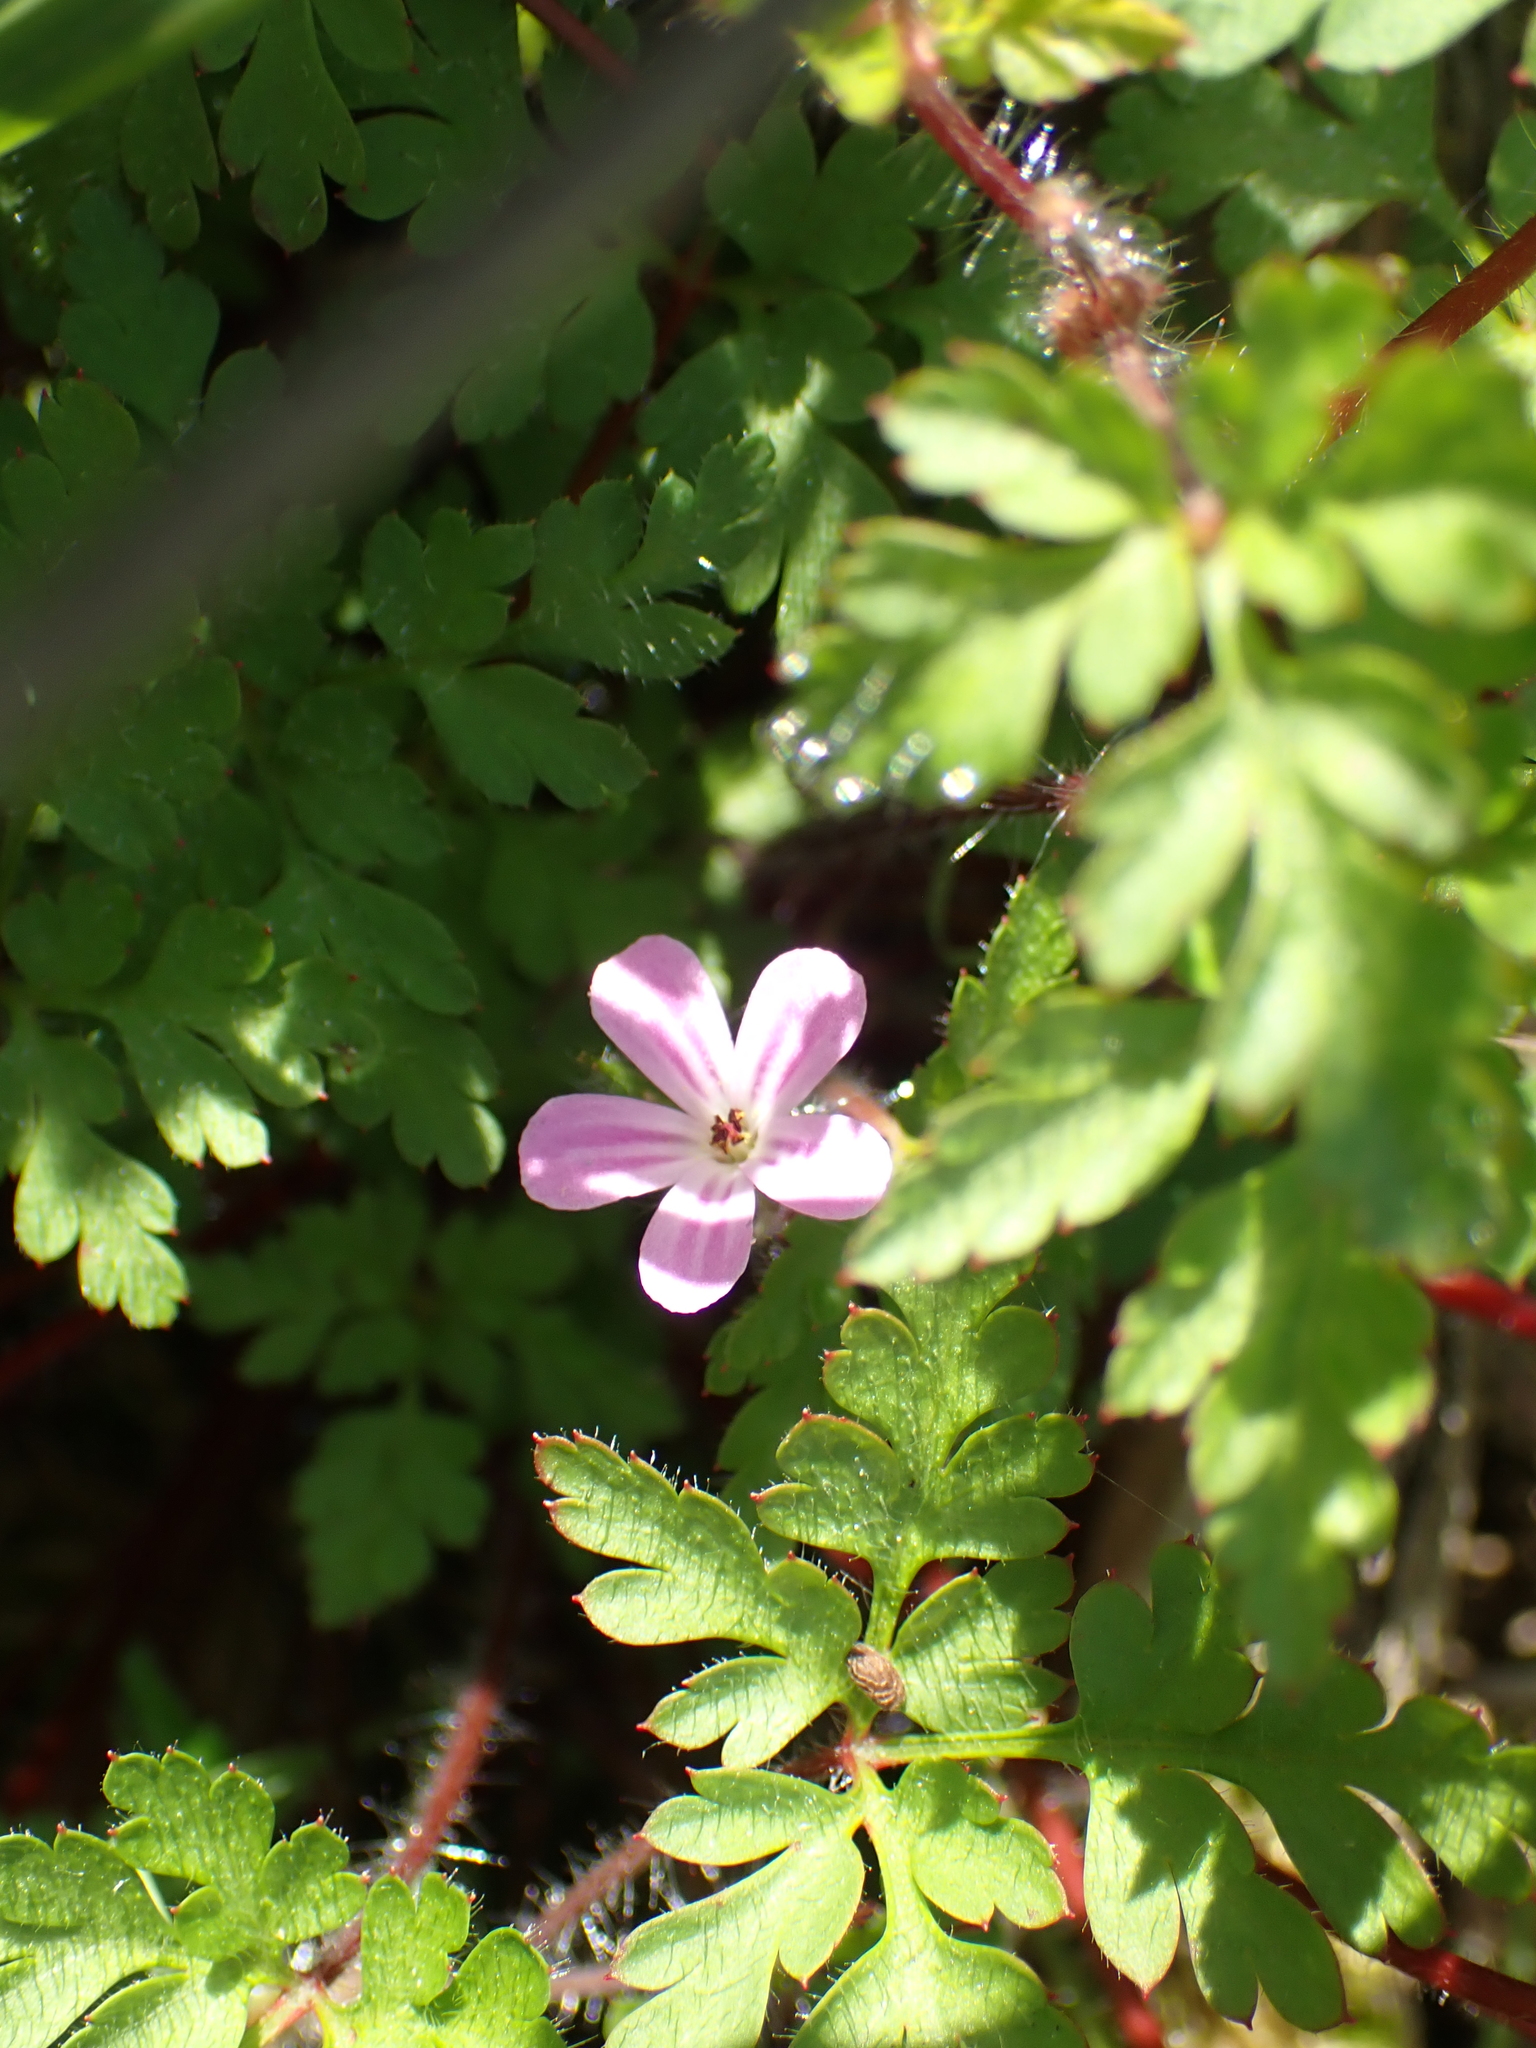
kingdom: Plantae
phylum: Tracheophyta
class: Magnoliopsida
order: Geraniales
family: Geraniaceae
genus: Geranium
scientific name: Geranium robertianum
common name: Herb-robert
